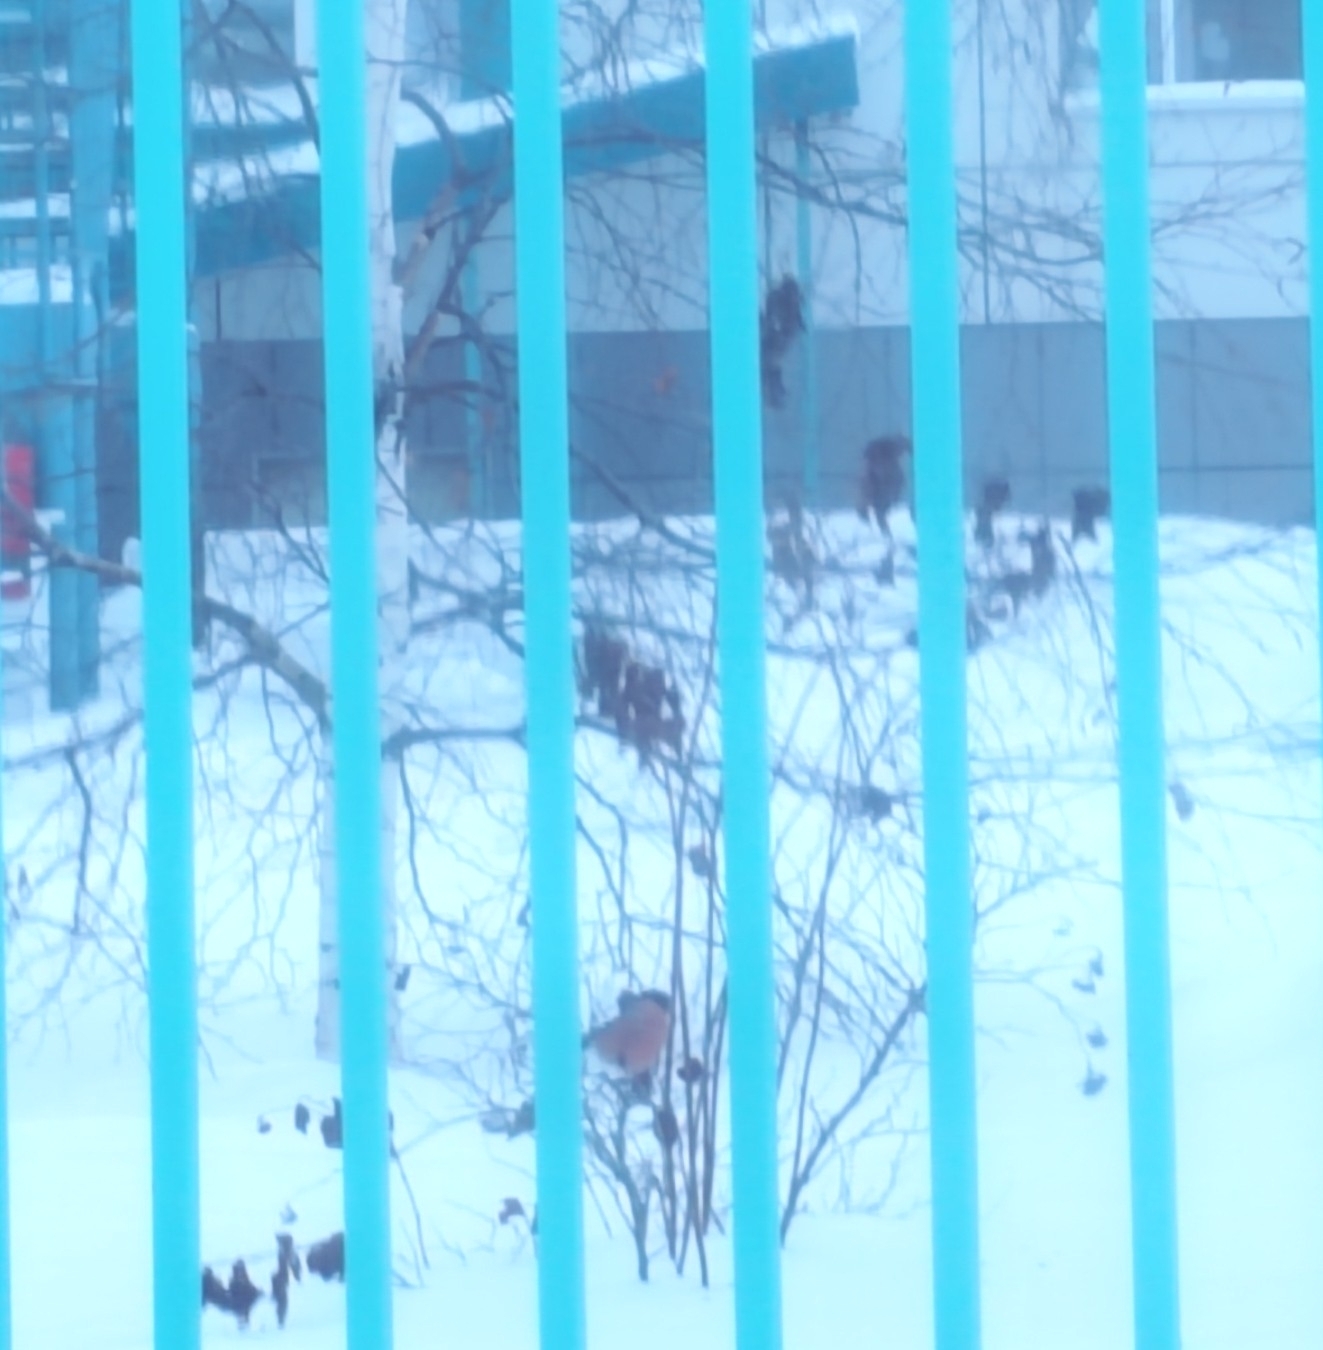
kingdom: Animalia
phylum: Chordata
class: Aves
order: Passeriformes
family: Fringillidae
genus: Pyrrhula
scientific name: Pyrrhula pyrrhula
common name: Eurasian bullfinch
